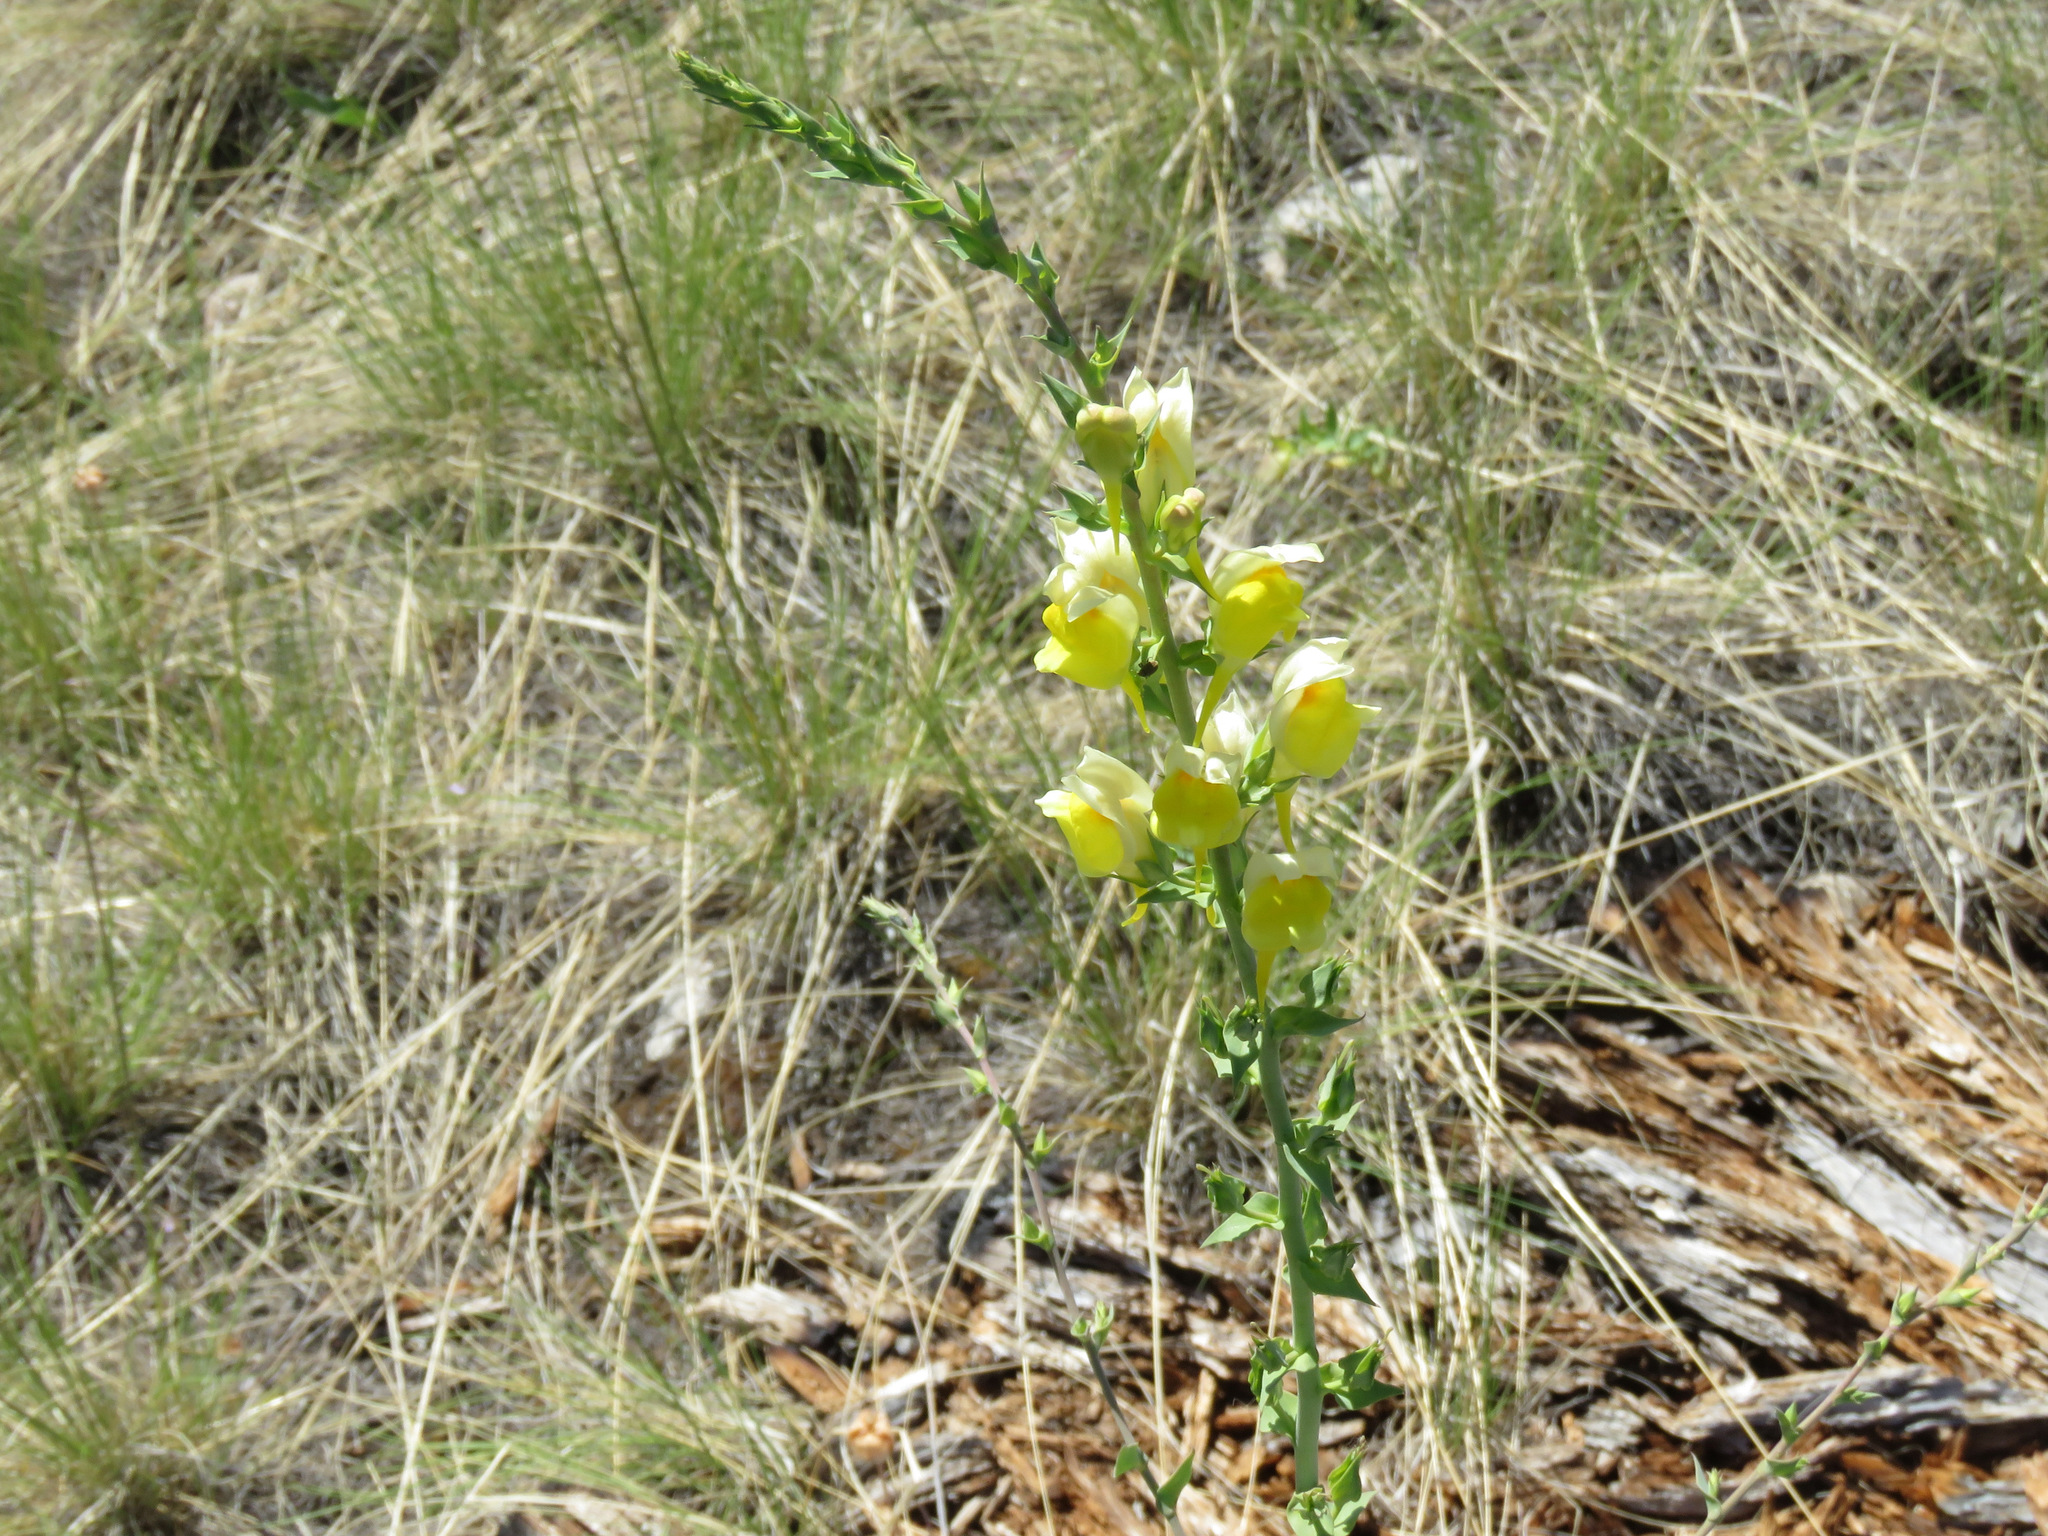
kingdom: Plantae
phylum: Tracheophyta
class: Magnoliopsida
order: Lamiales
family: Plantaginaceae
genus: Linaria
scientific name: Linaria dalmatica
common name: Dalmatian toadflax
